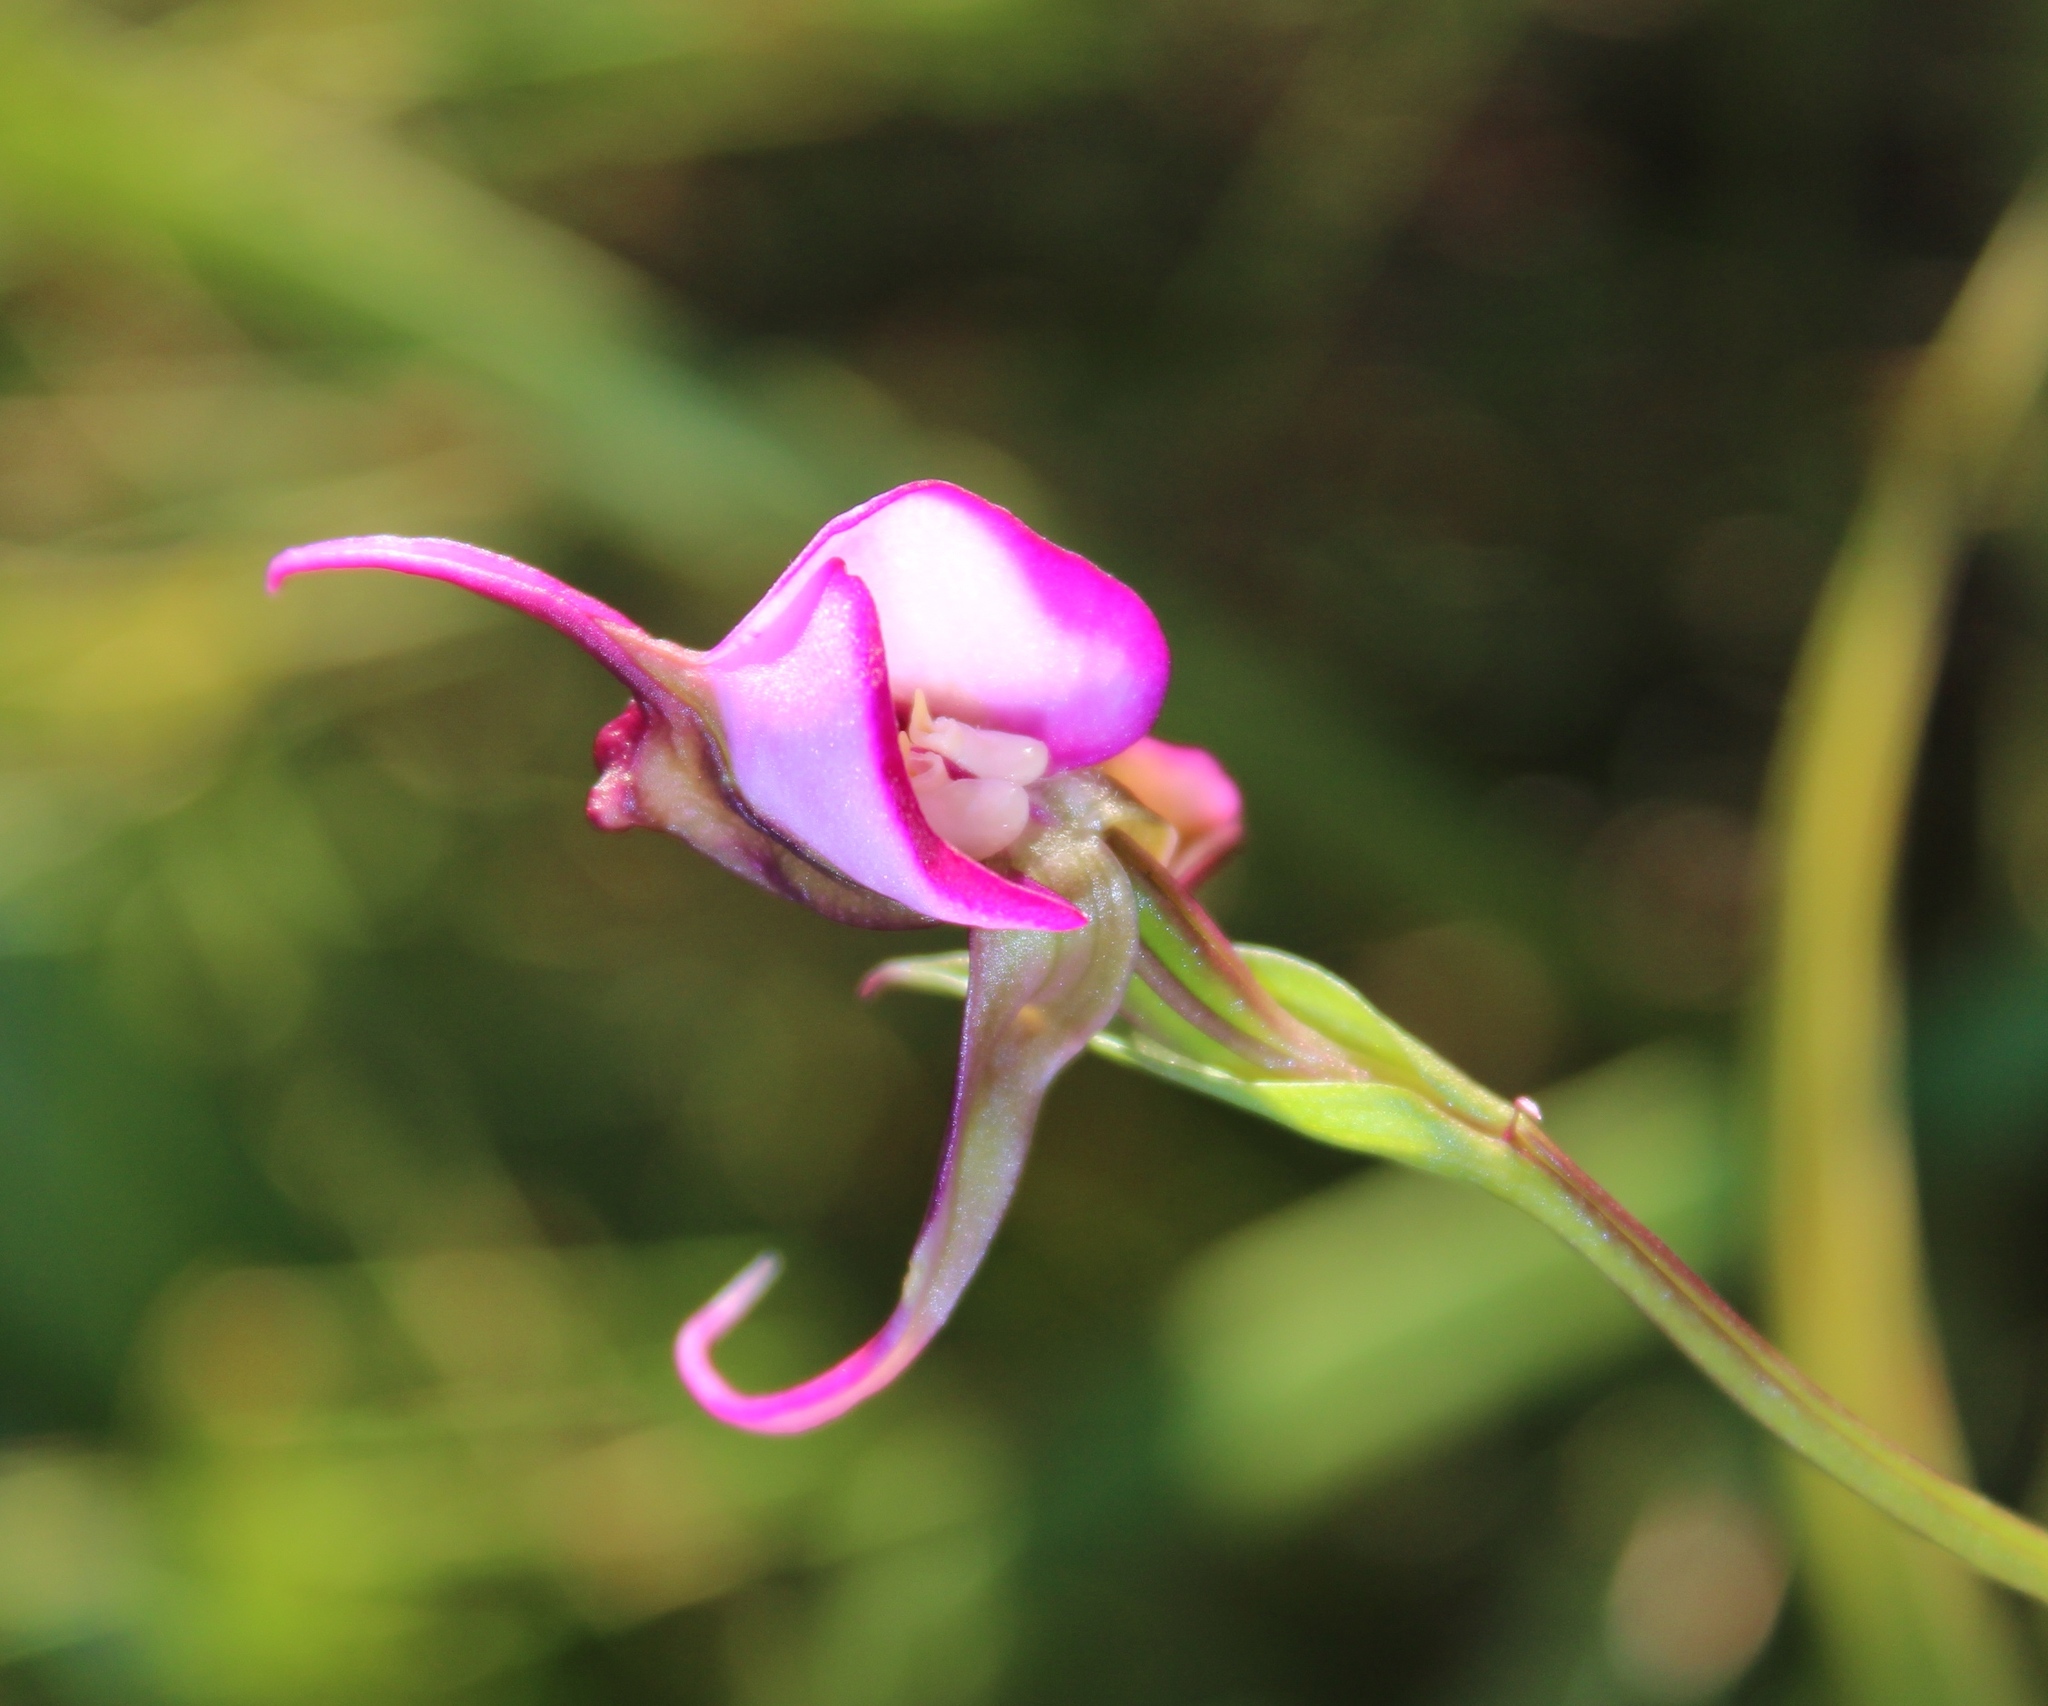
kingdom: Plantae
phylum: Tracheophyta
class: Liliopsida
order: Asparagales
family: Orchidaceae
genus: Disperis
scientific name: Disperis capensis
